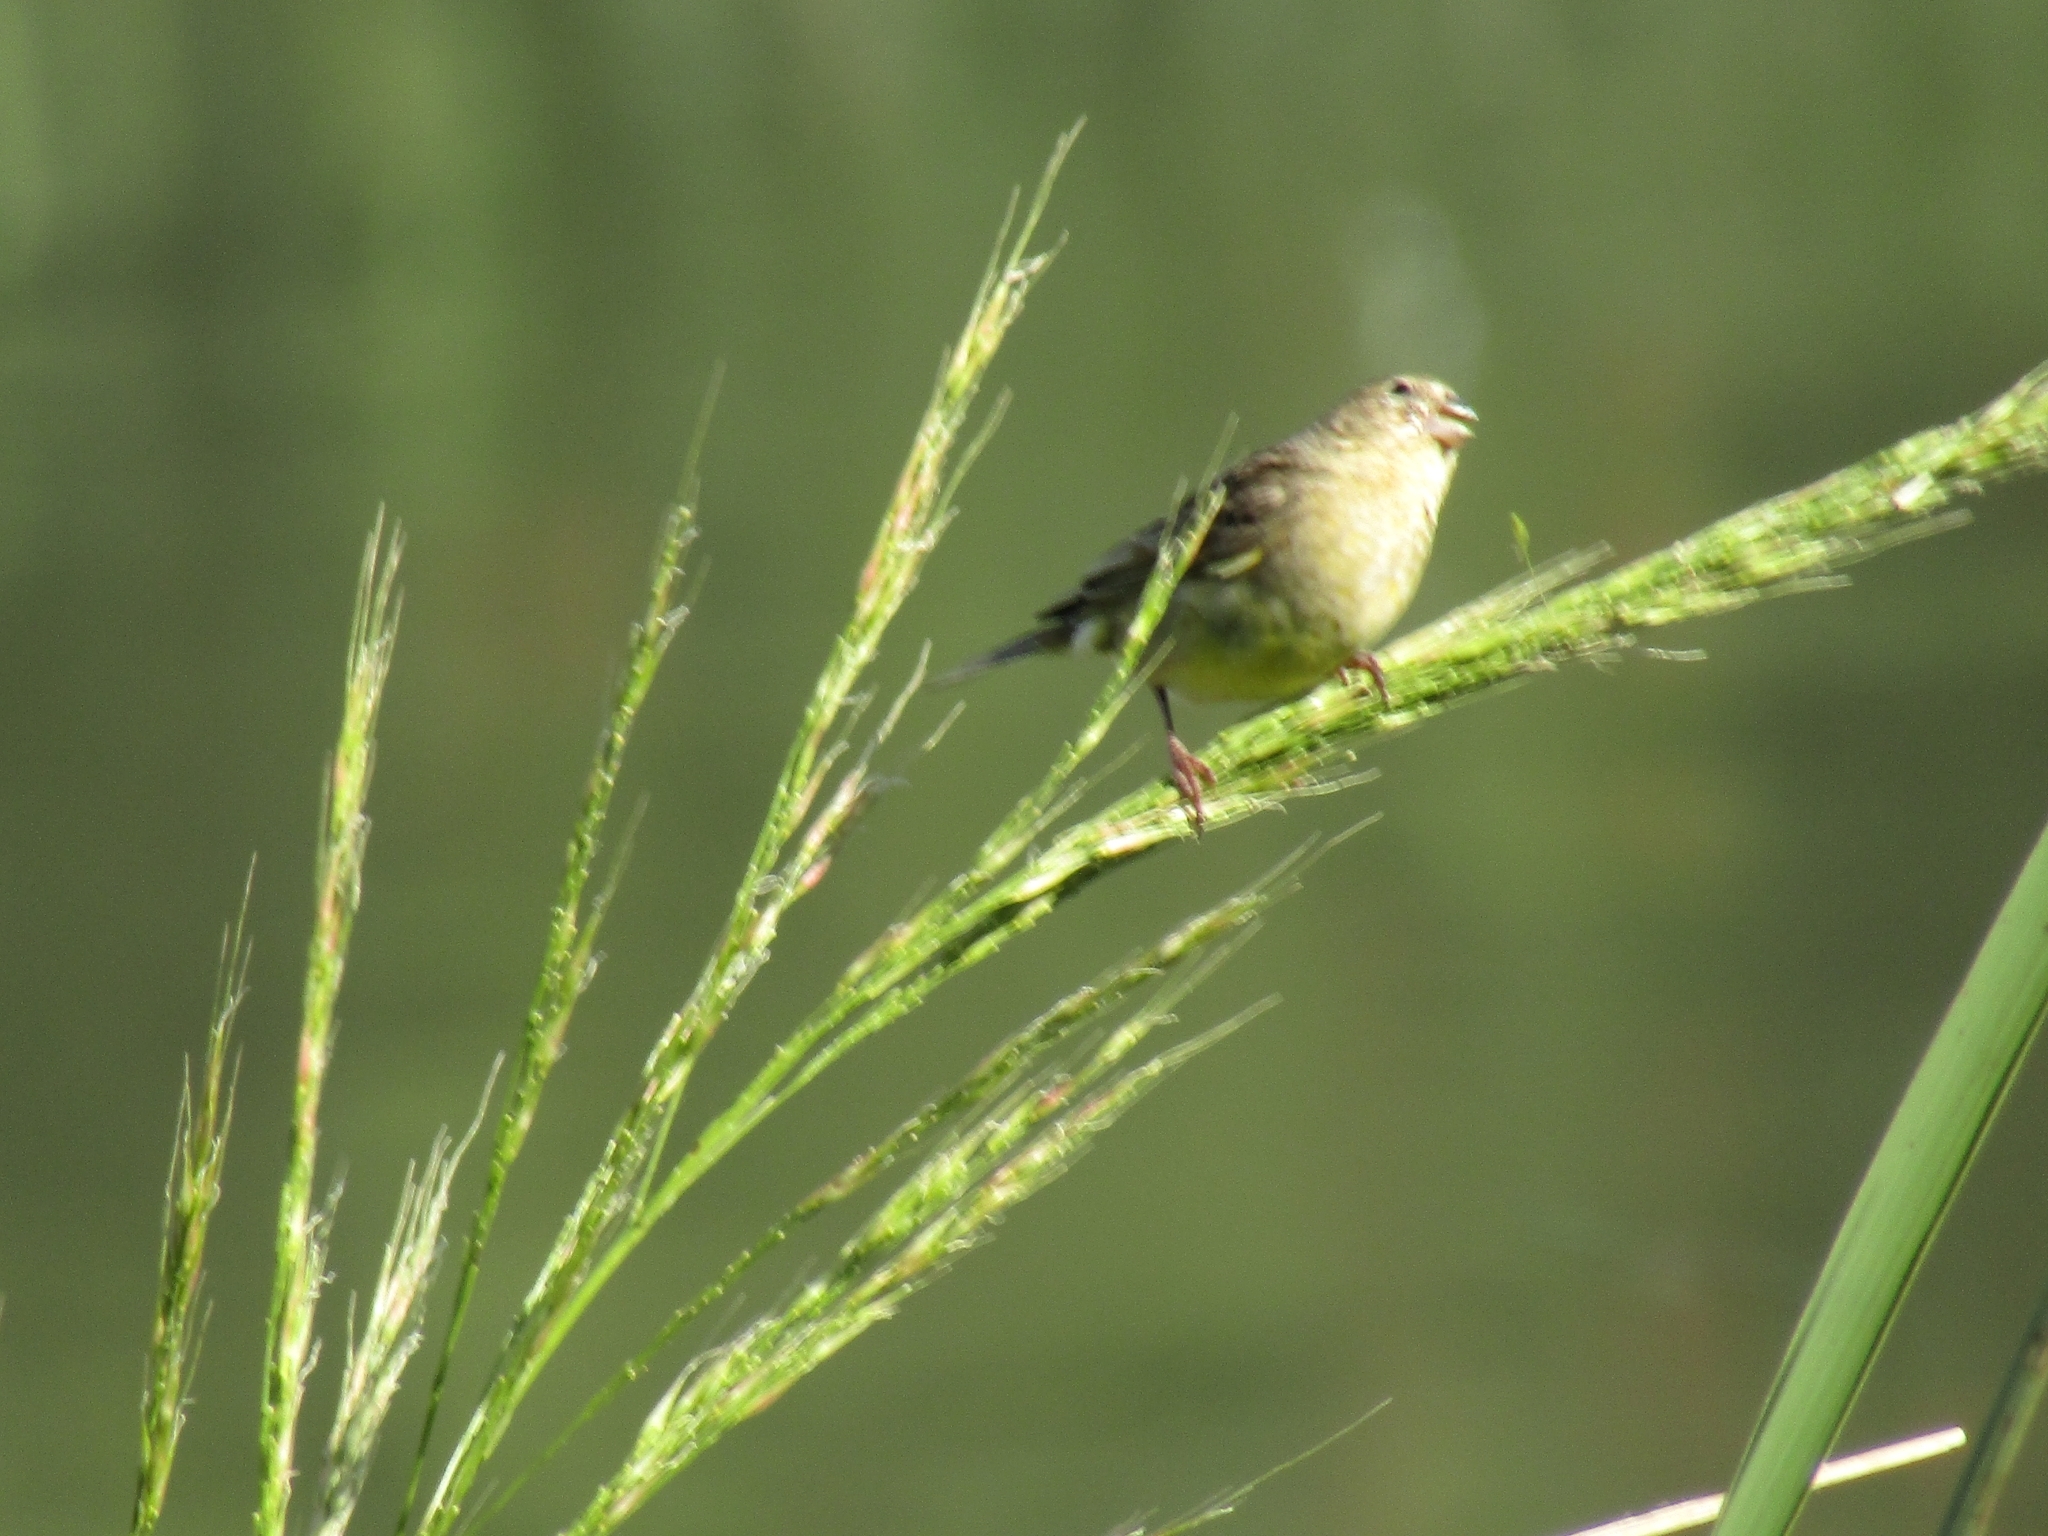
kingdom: Animalia
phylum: Chordata
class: Aves
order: Passeriformes
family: Thraupidae
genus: Sicalis
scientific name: Sicalis flaveola
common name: Saffron finch
